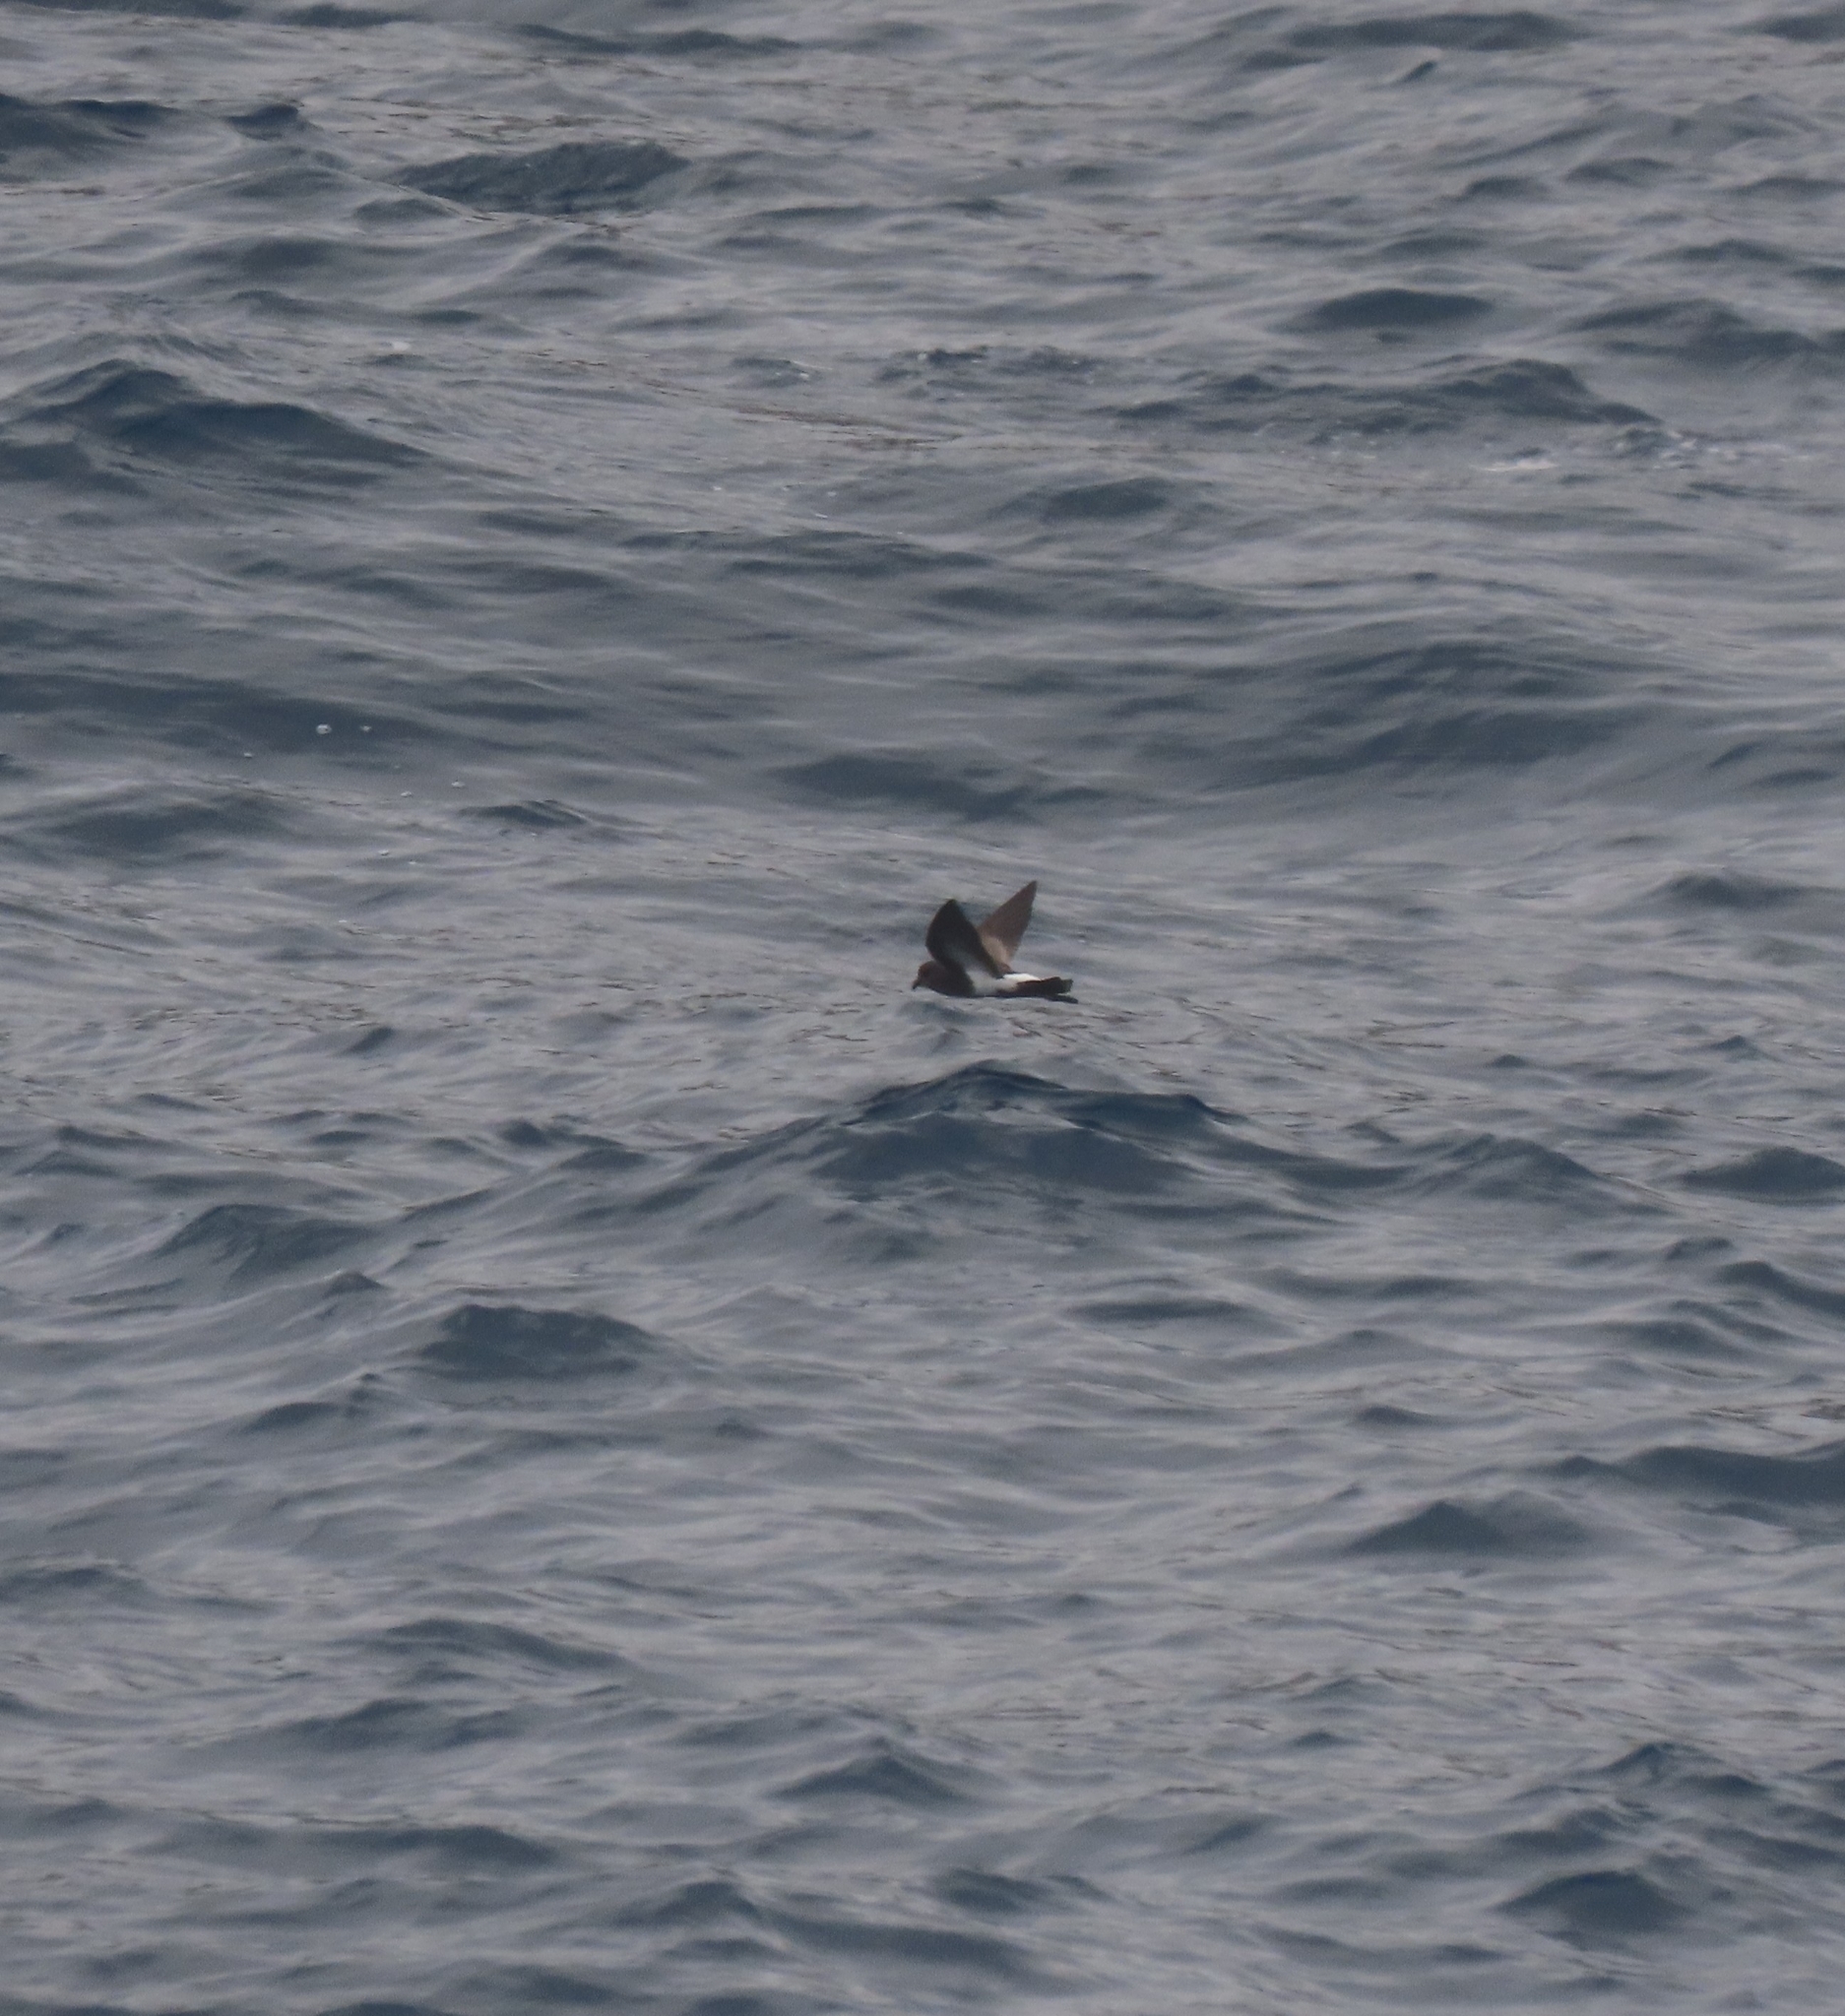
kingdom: Animalia
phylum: Chordata
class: Aves
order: Procellariiformes
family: Hydrobatidae
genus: Fregetta
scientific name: Fregetta tropica
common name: Black-bellied storm-petrel
